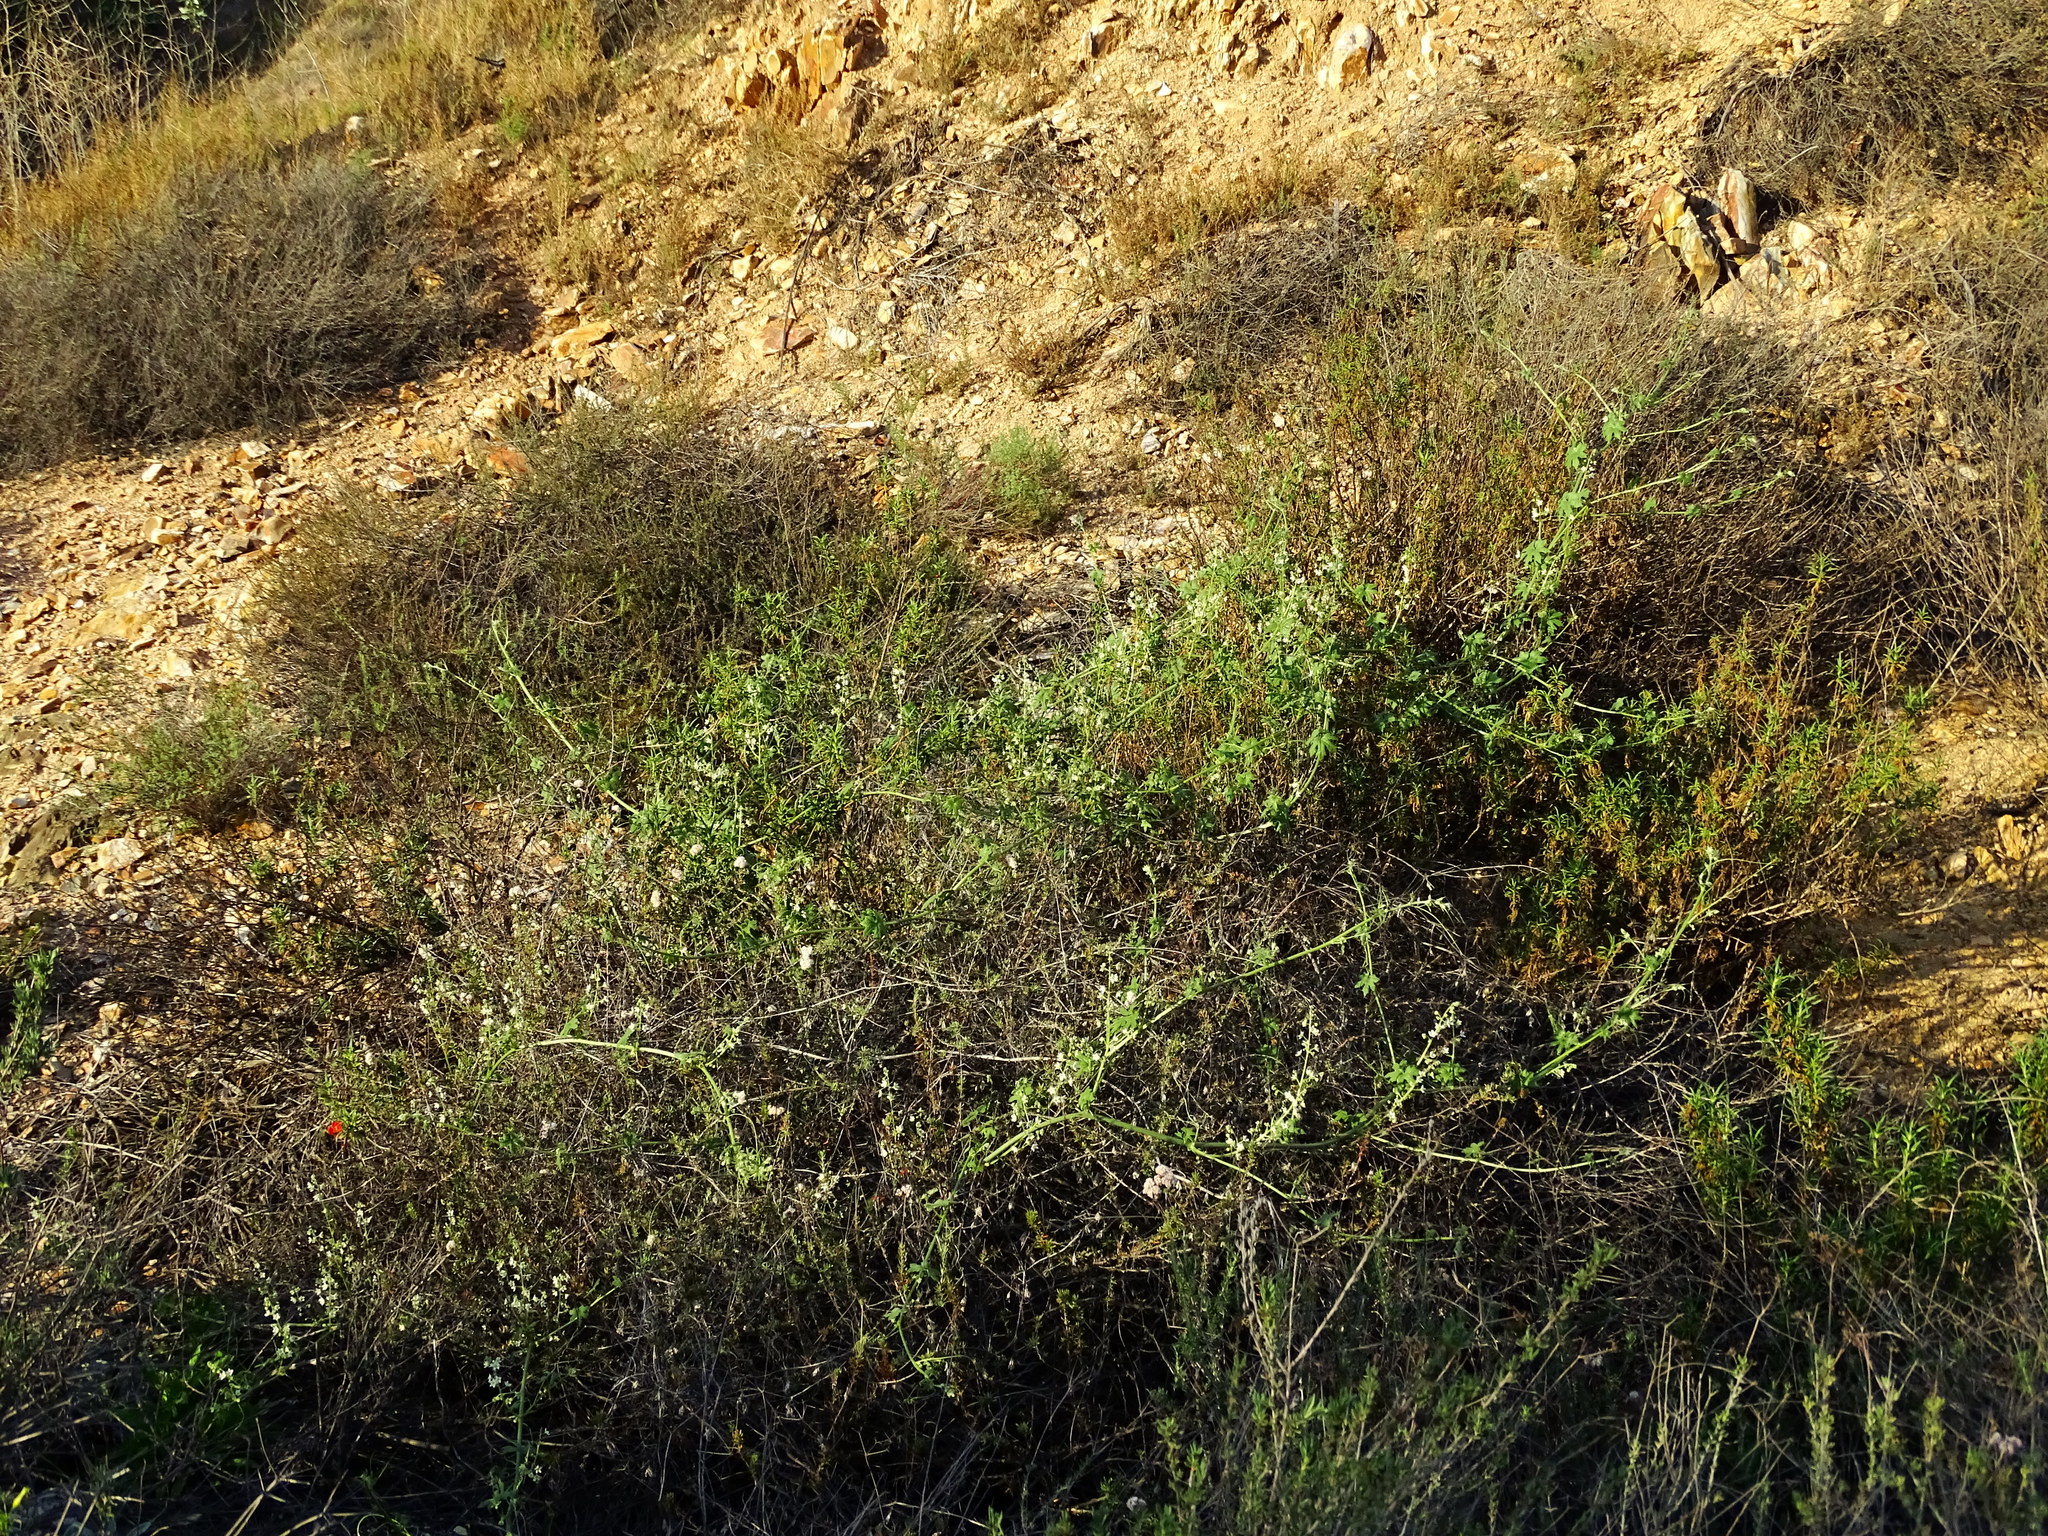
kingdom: Plantae
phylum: Tracheophyta
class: Magnoliopsida
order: Cucurbitales
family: Cucurbitaceae
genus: Marah
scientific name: Marah macrocarpa
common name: Cucamonga manroot
